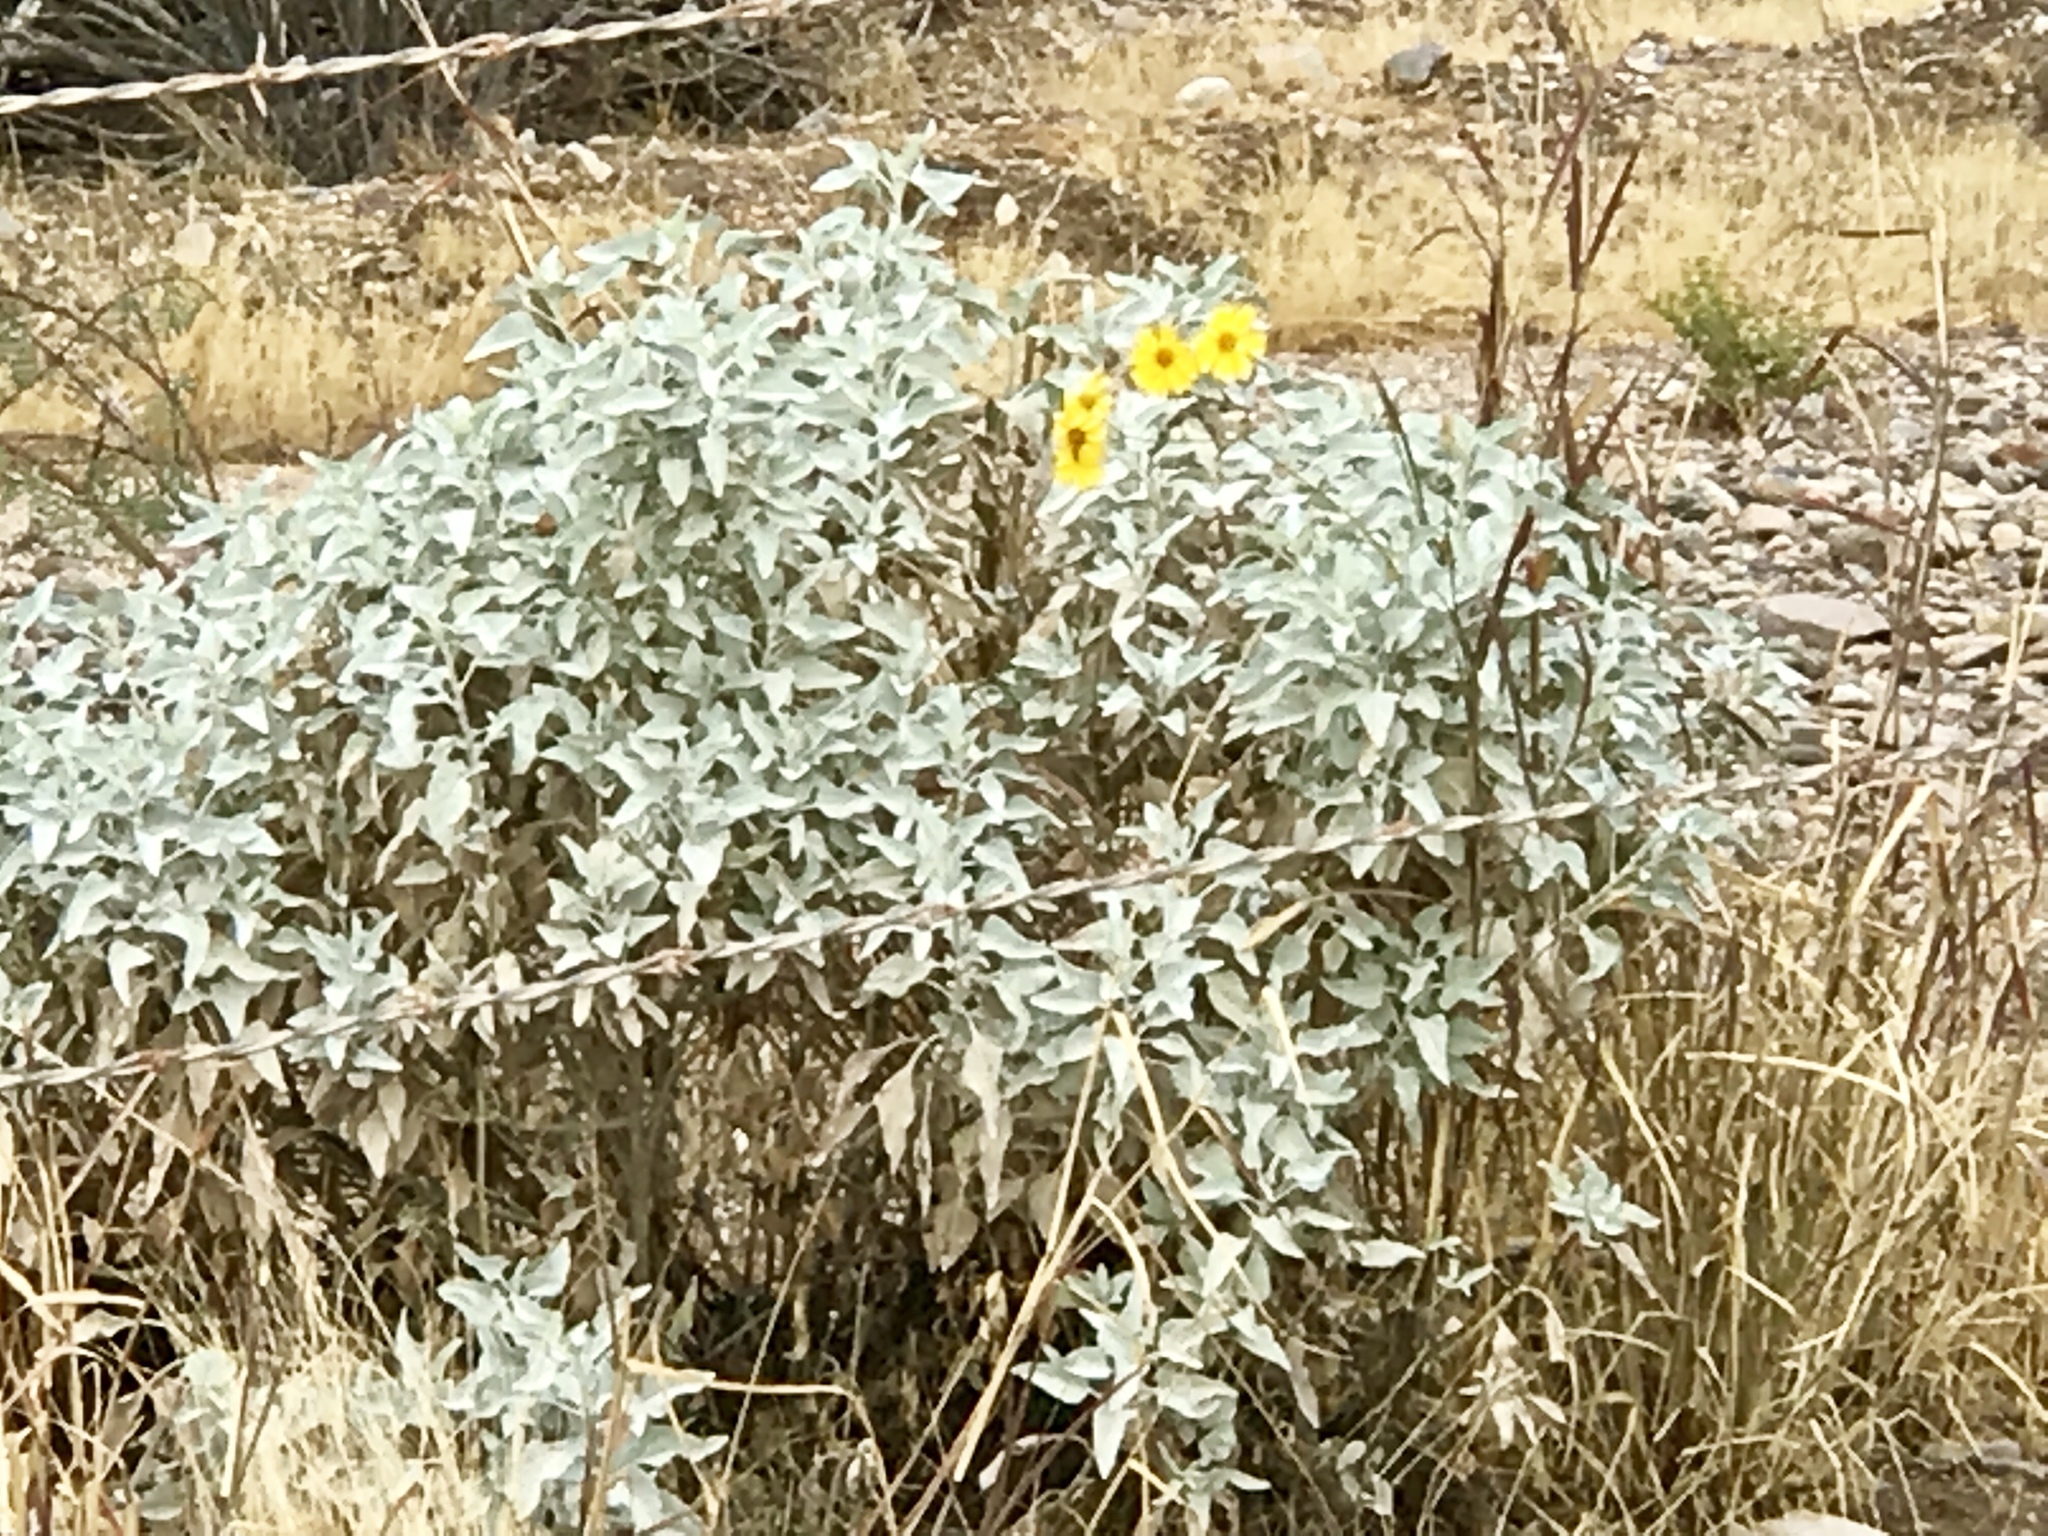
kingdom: Plantae
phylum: Tracheophyta
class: Magnoliopsida
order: Asterales
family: Asteraceae
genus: Encelia
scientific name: Encelia farinosa
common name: Brittlebush
